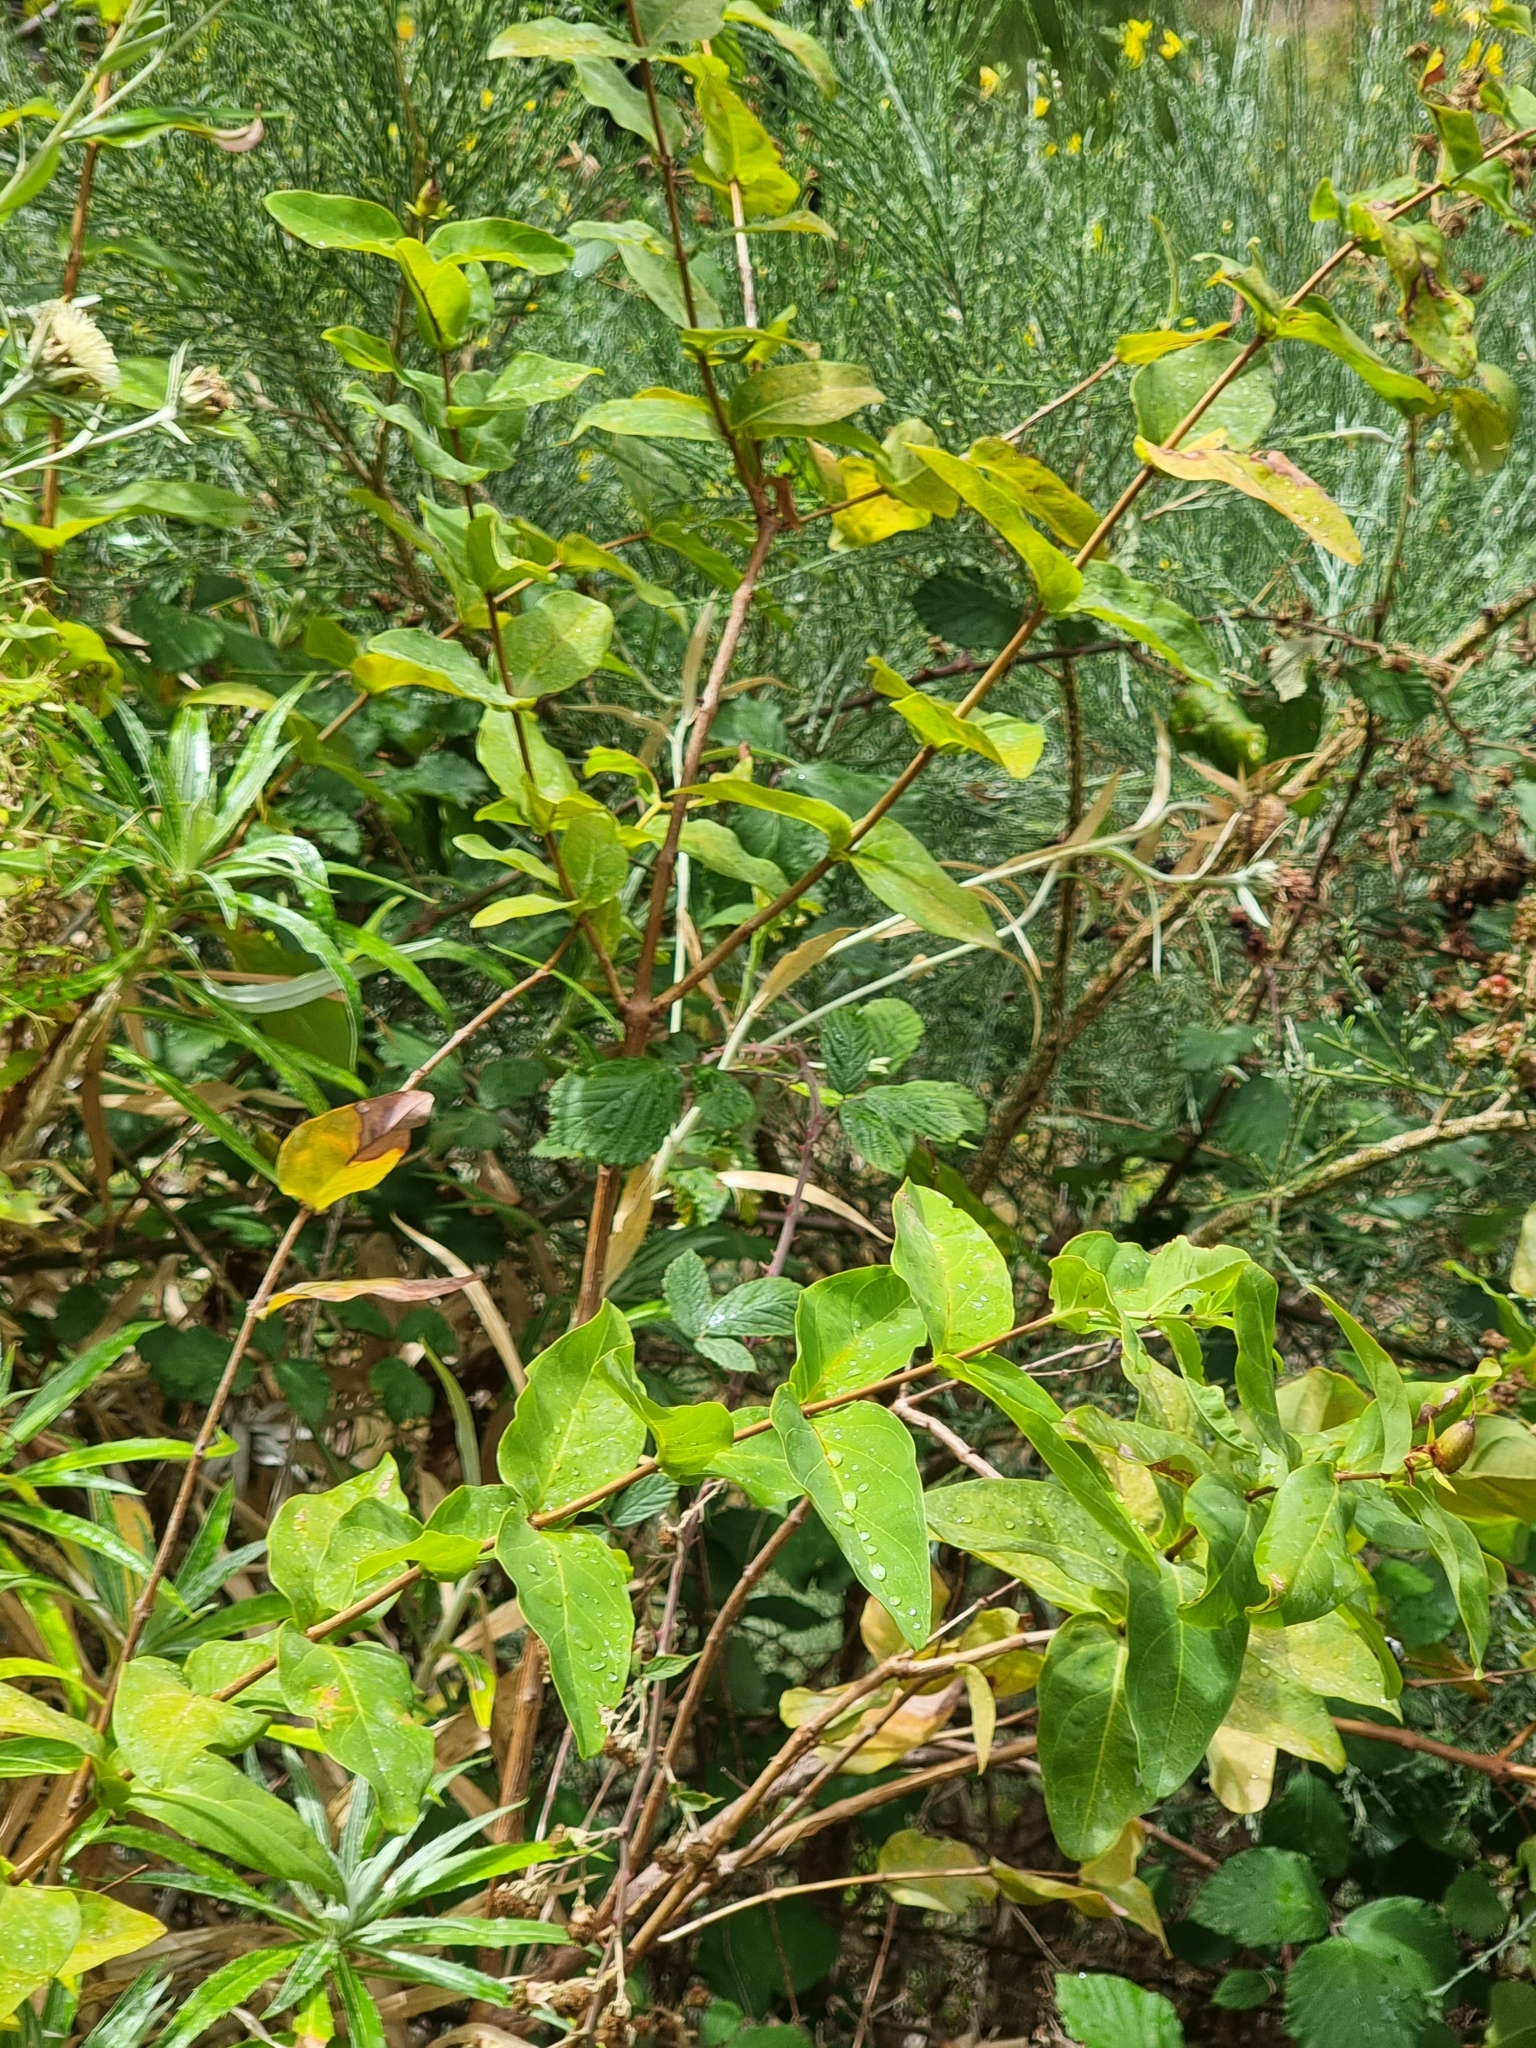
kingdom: Plantae
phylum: Tracheophyta
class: Magnoliopsida
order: Malpighiales
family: Hypericaceae
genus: Hypericum
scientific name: Hypericum grandifolium
